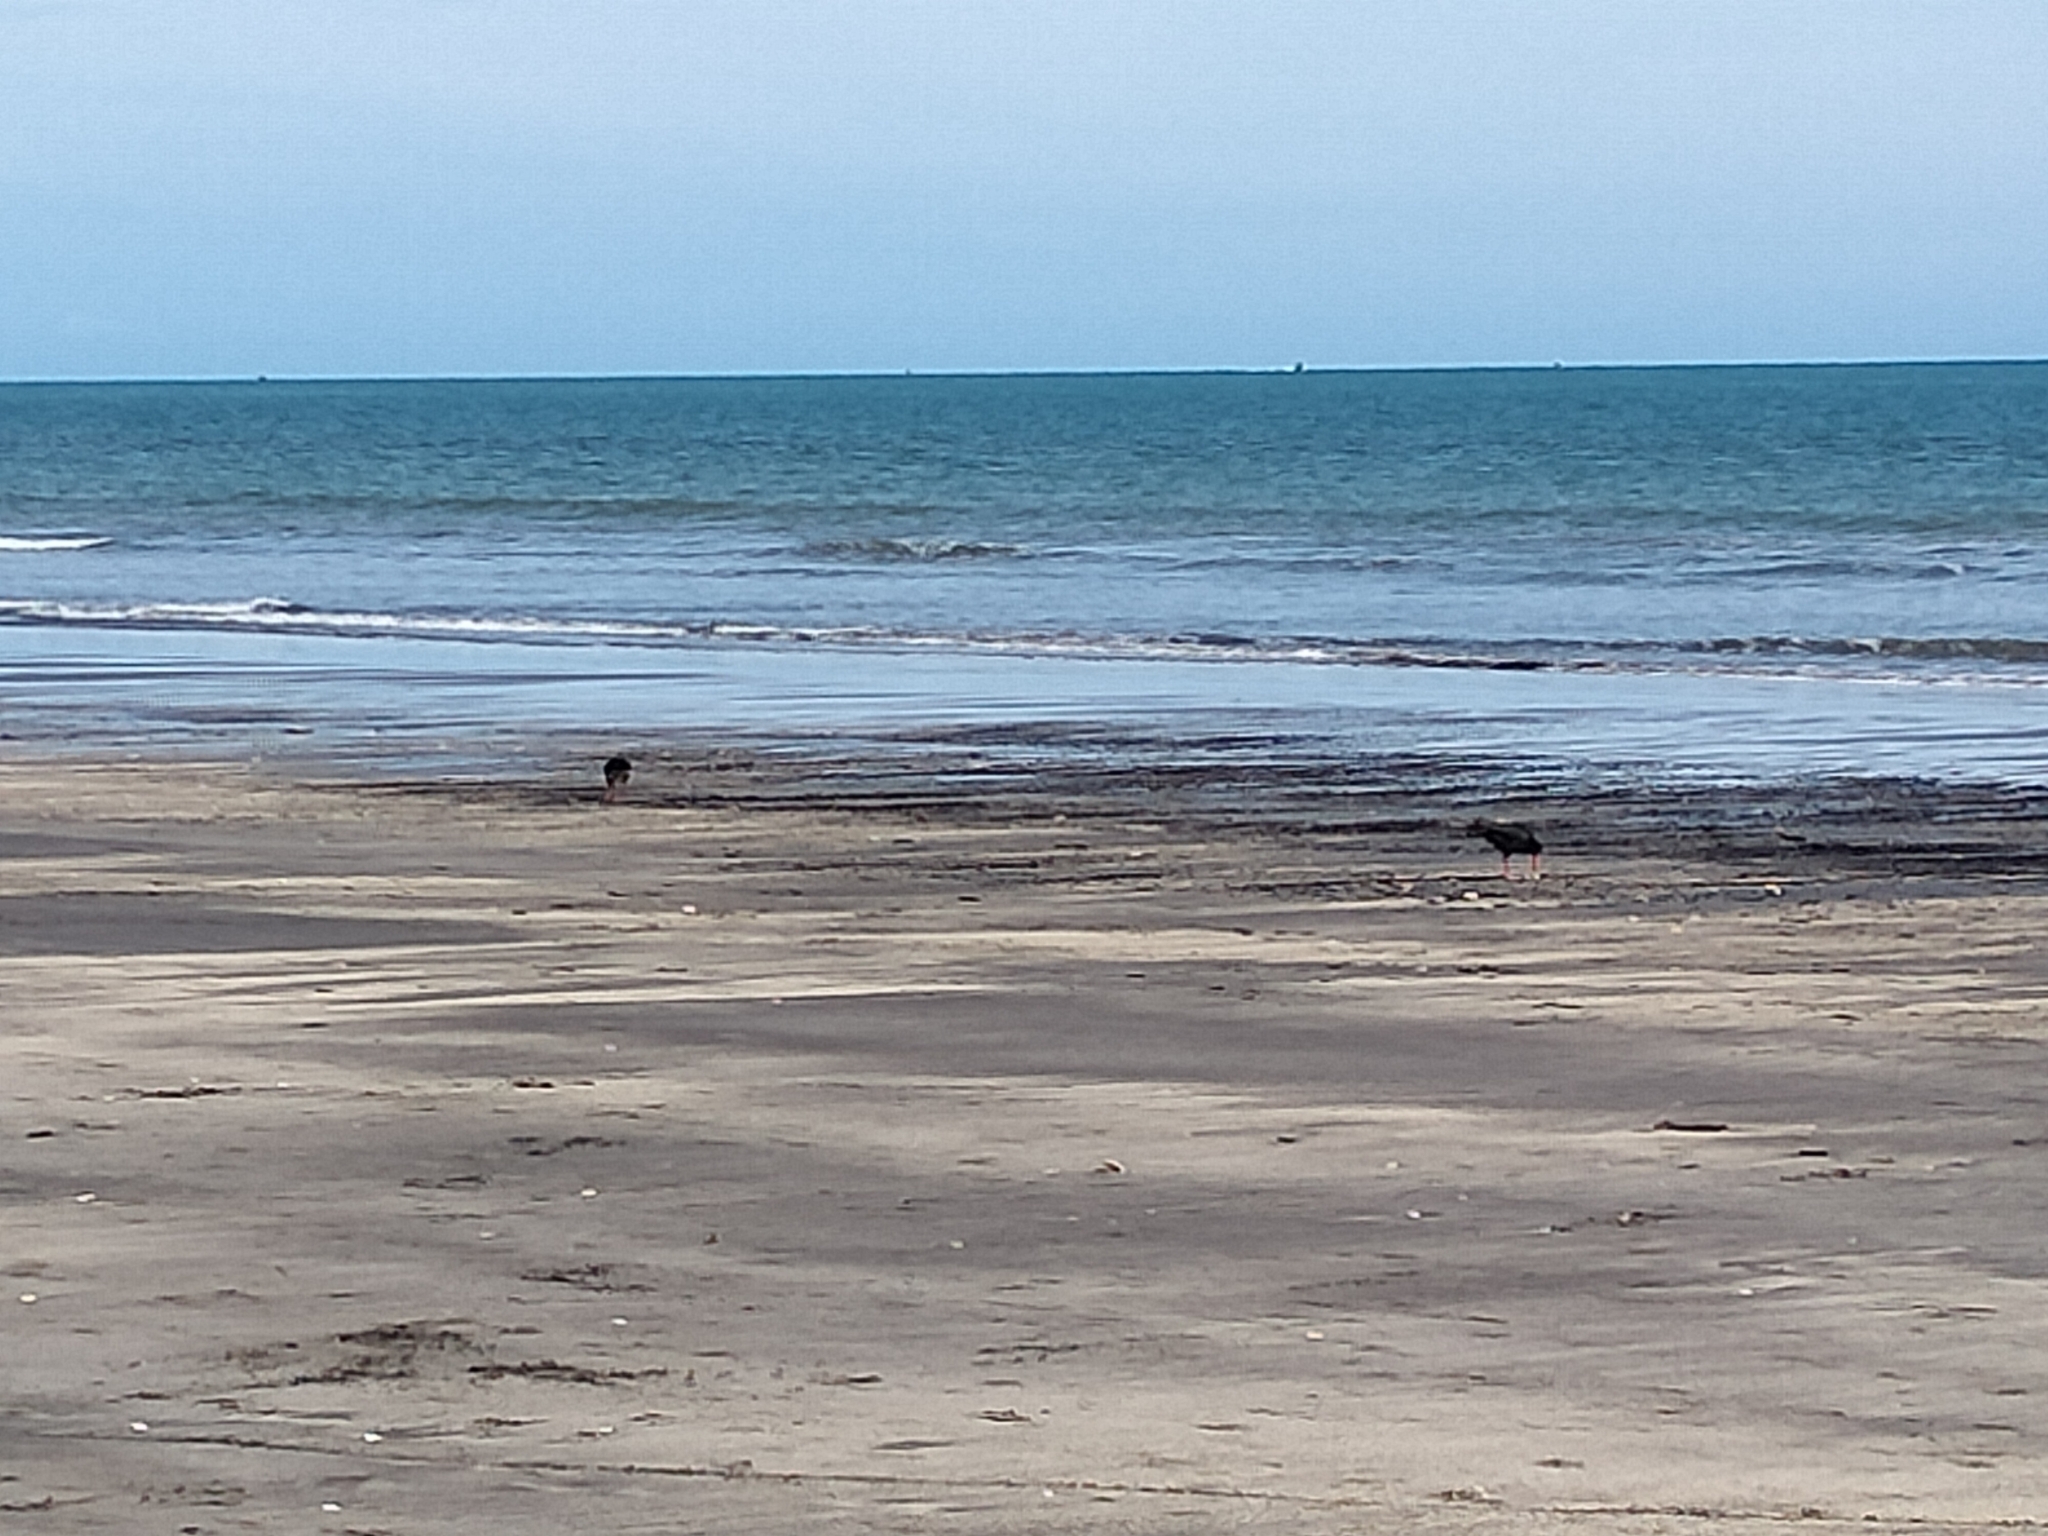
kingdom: Animalia
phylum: Chordata
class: Aves
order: Charadriiformes
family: Haematopodidae
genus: Haematopus
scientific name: Haematopus unicolor
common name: Variable oystercatcher
